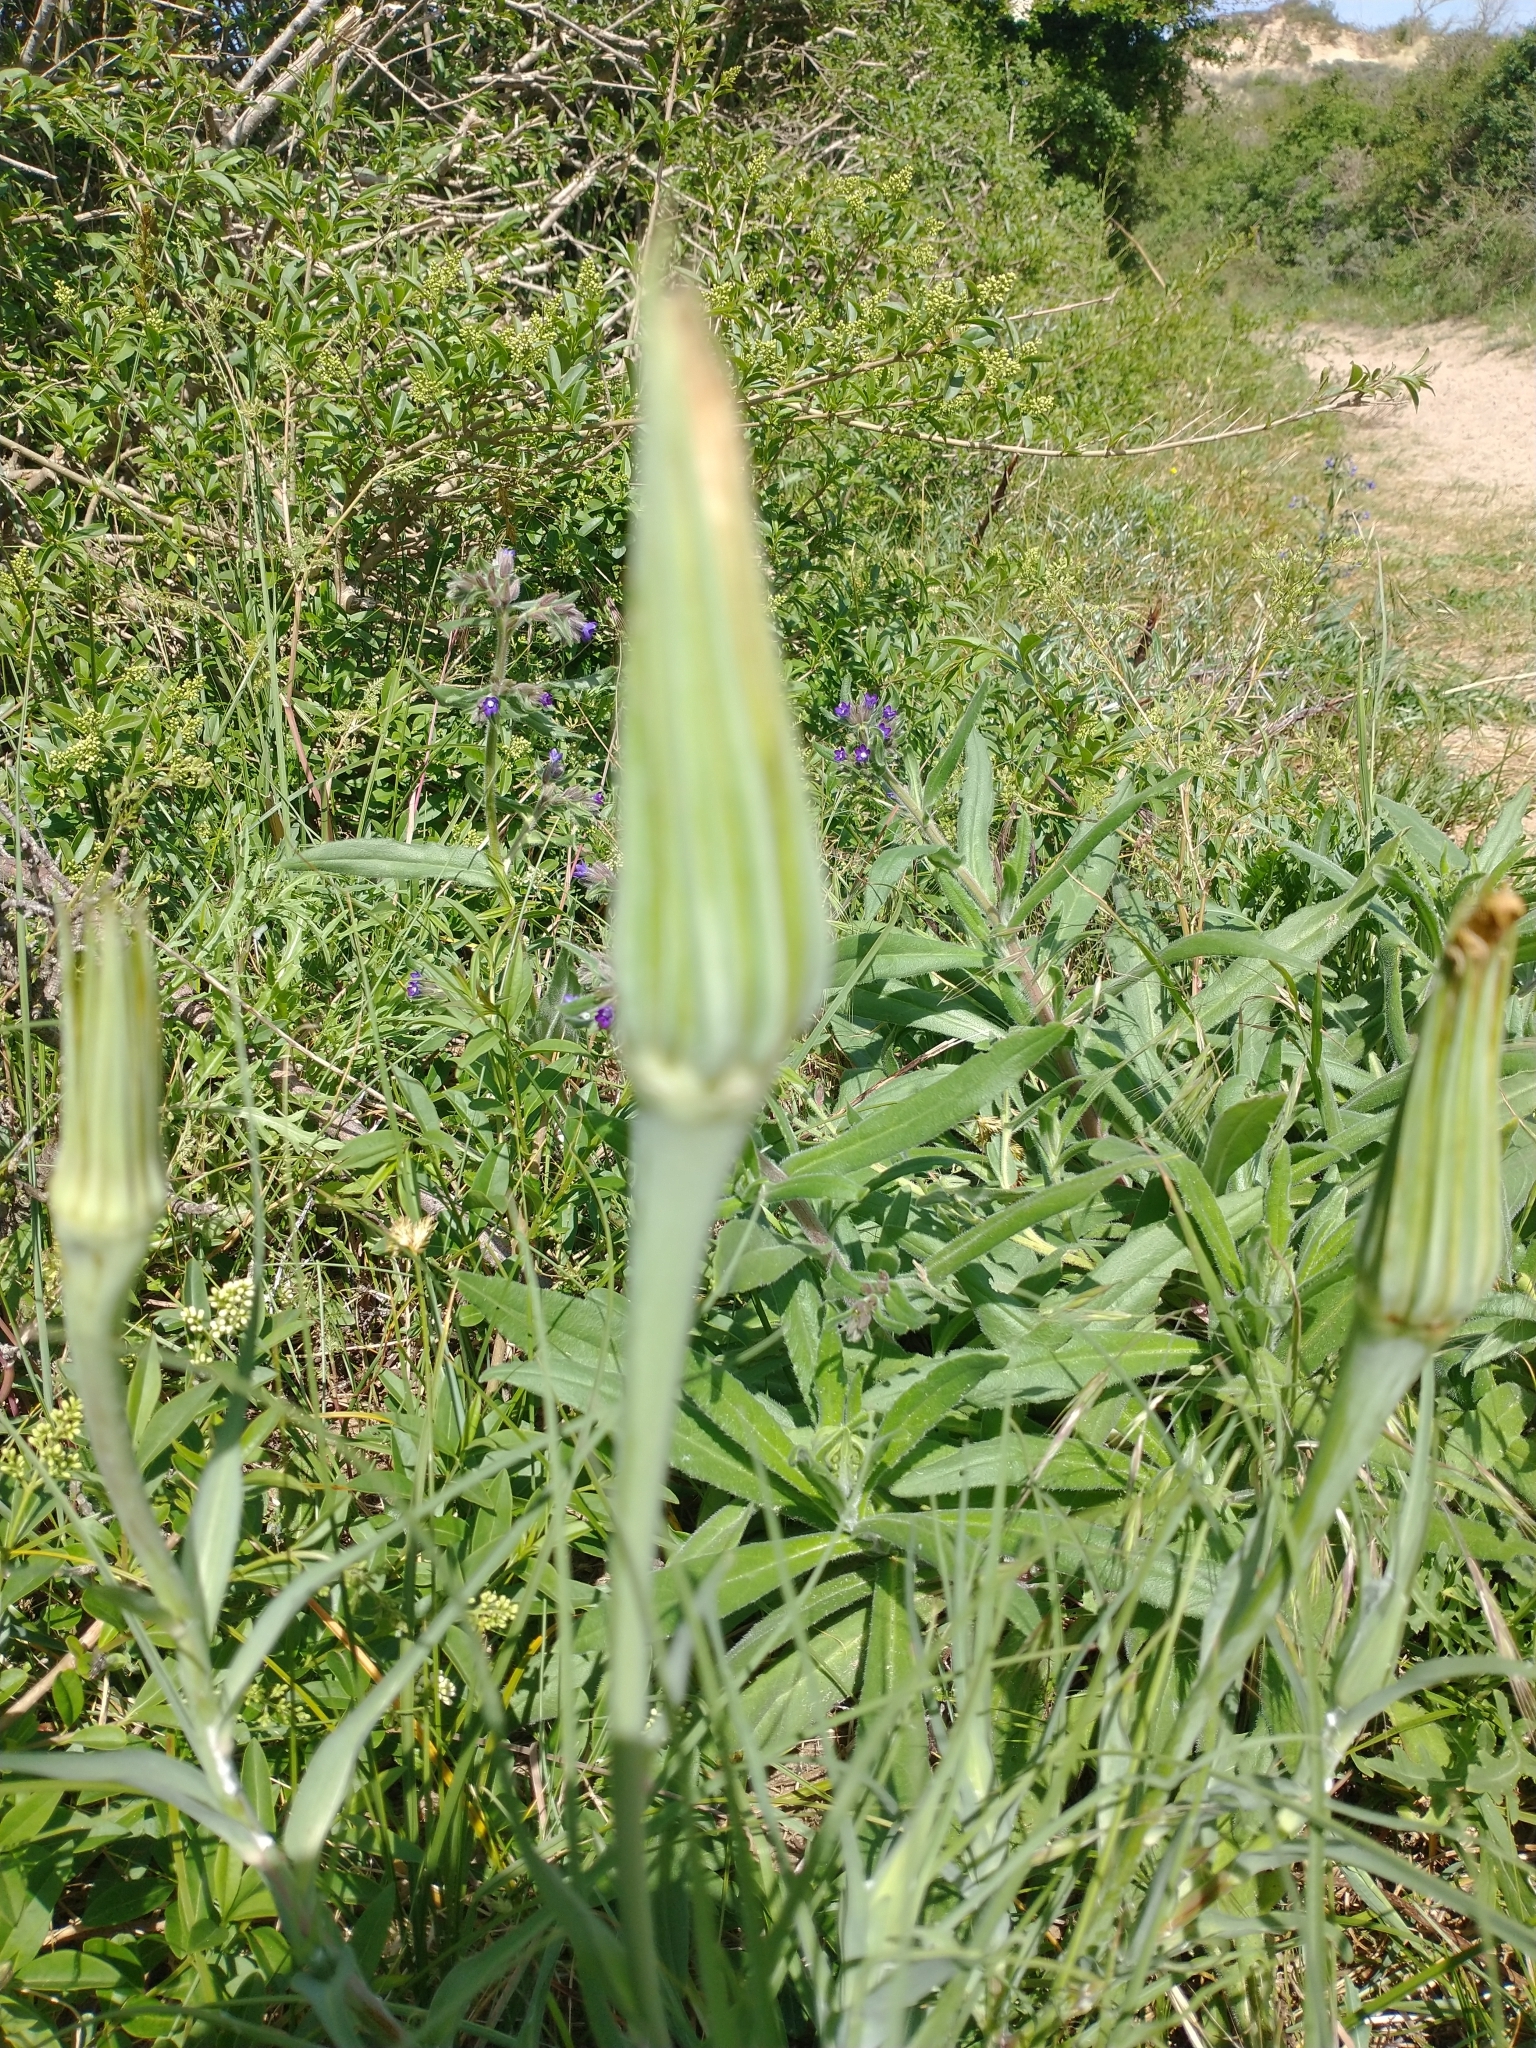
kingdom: Plantae
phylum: Tracheophyta
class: Magnoliopsida
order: Asterales
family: Asteraceae
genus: Tragopogon
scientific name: Tragopogon dubius
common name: Yellow salsify
